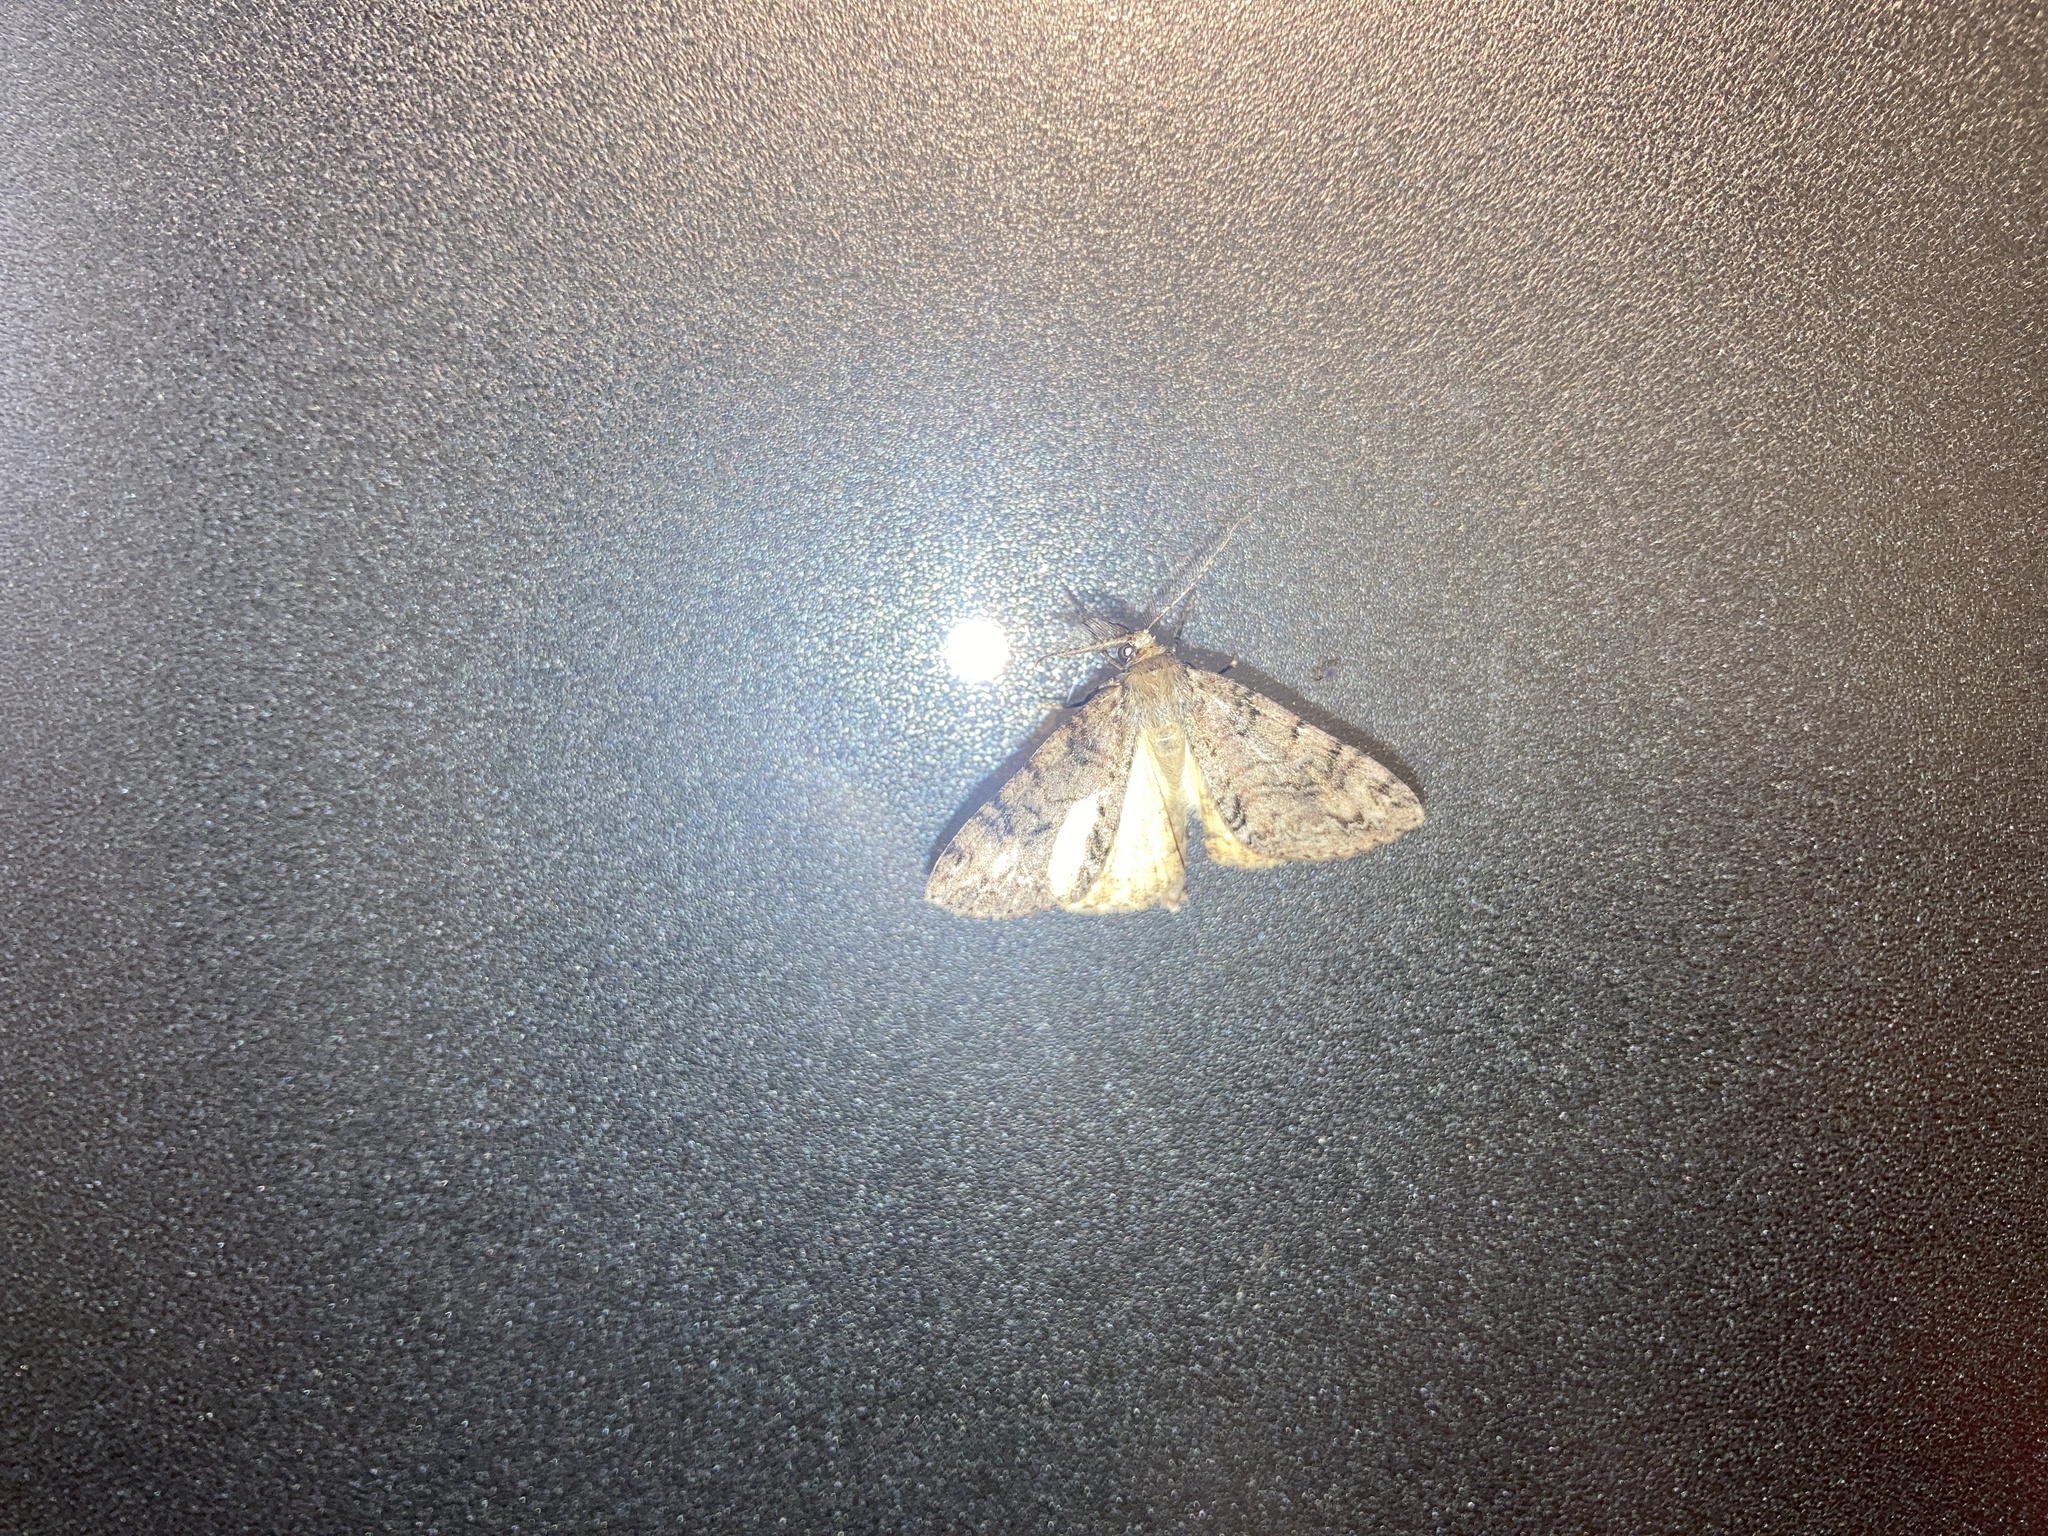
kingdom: Animalia
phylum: Arthropoda
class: Insecta
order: Lepidoptera
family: Geometridae
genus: Pseudocoremia
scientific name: Pseudocoremia suavis
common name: Common forest looper
